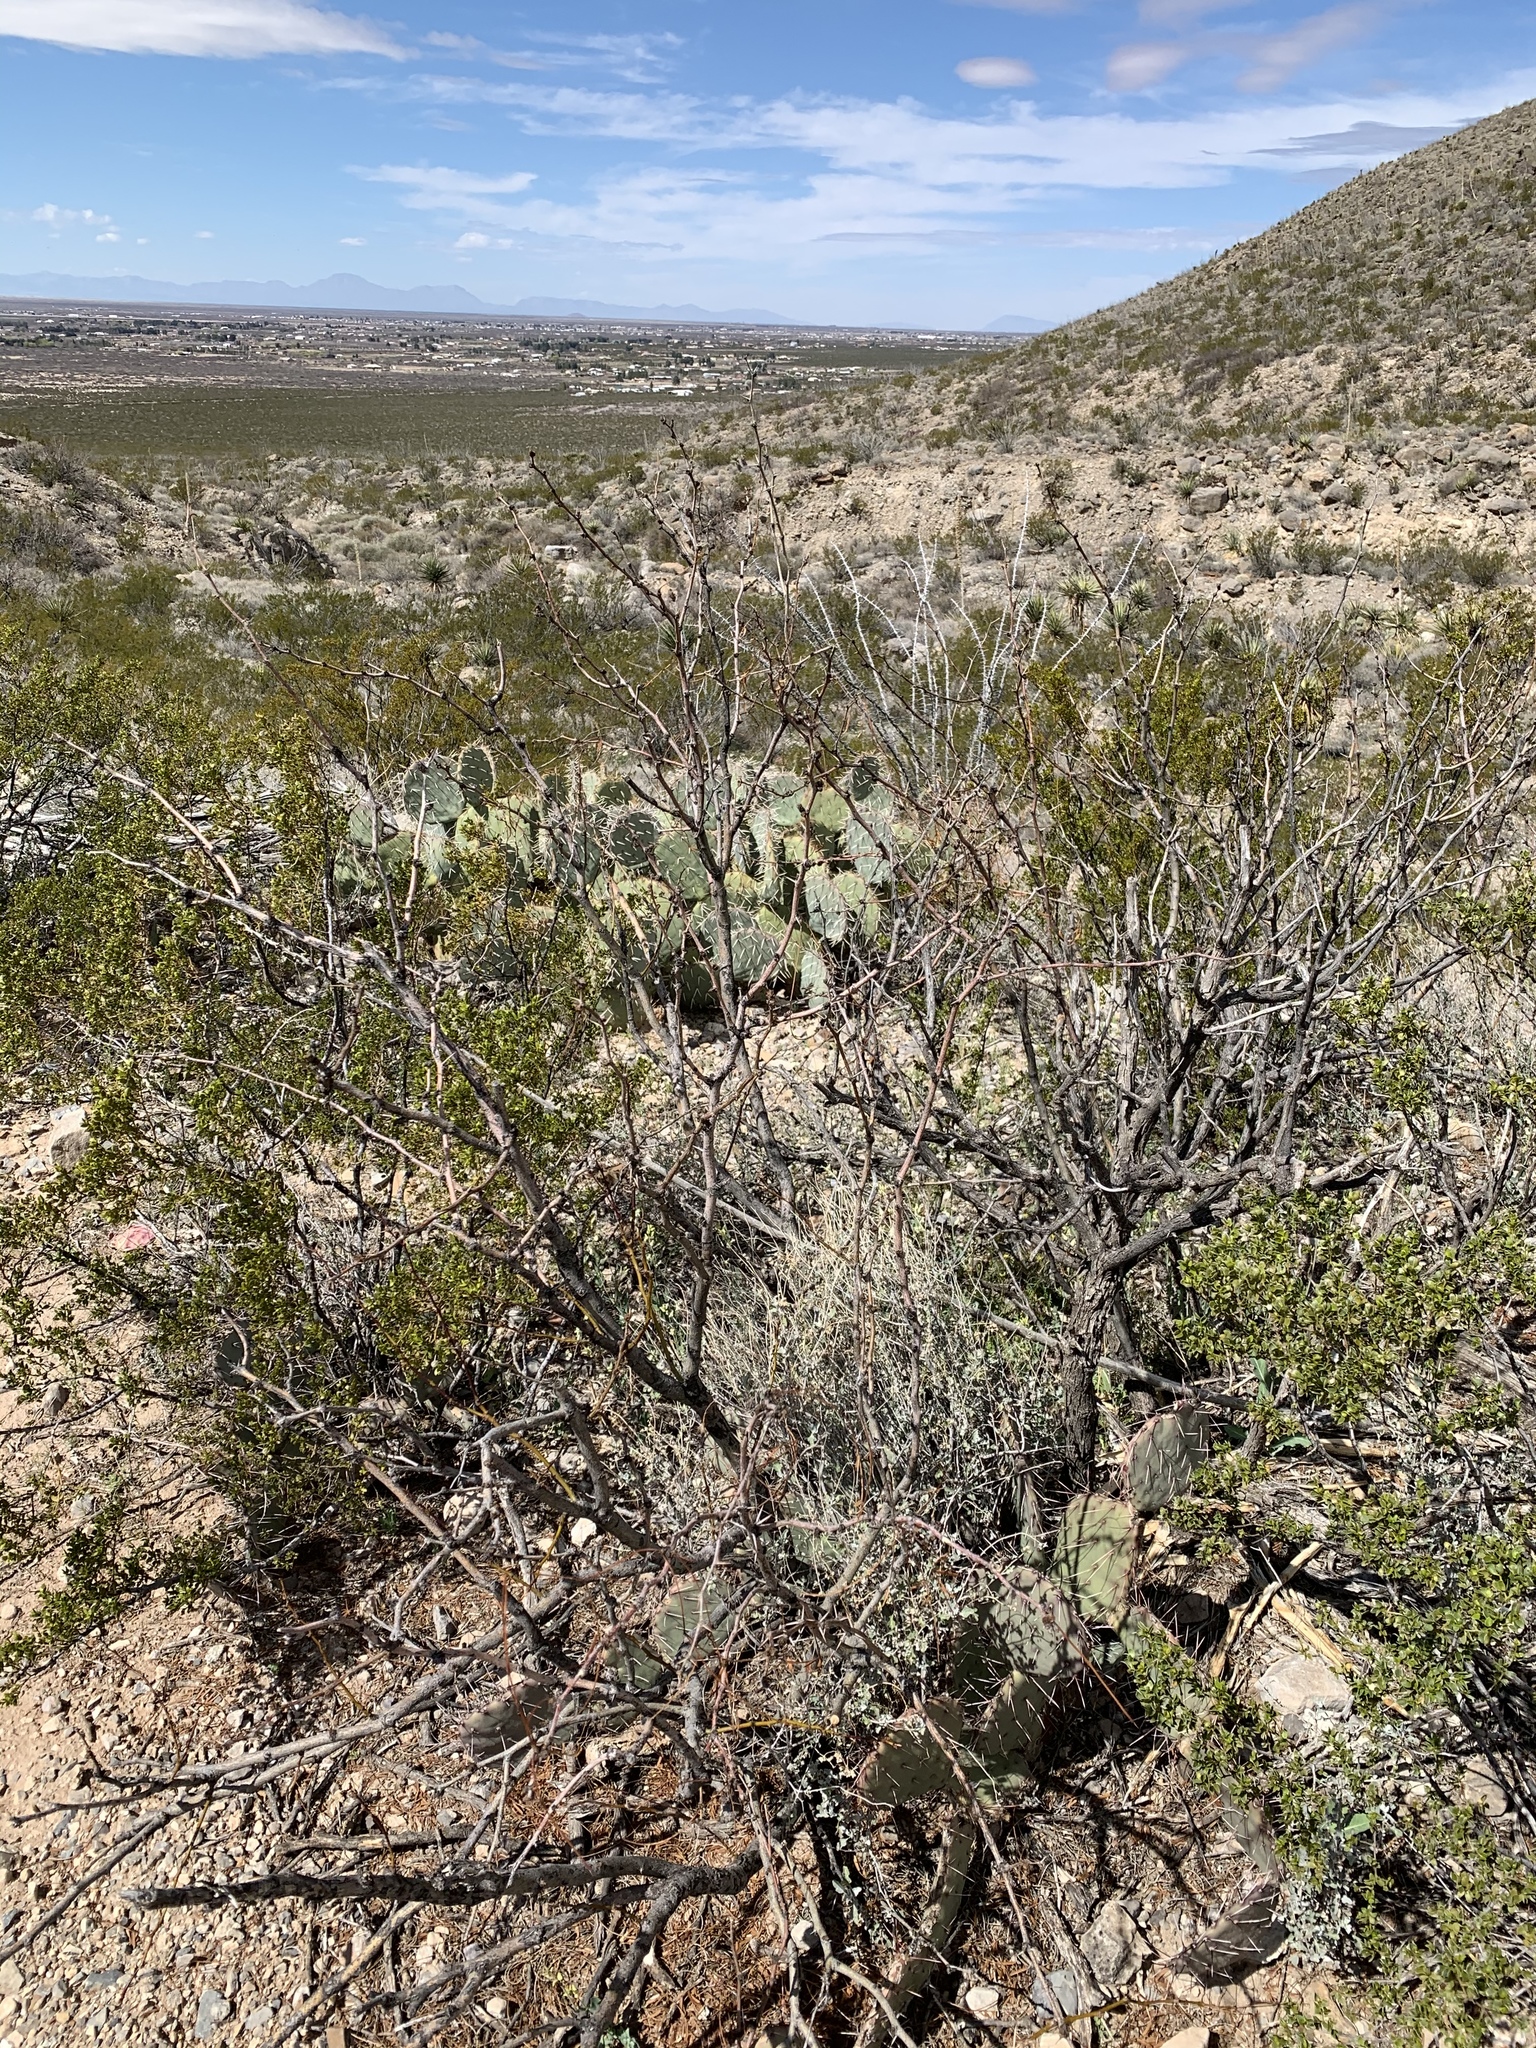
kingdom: Plantae
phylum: Tracheophyta
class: Magnoliopsida
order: Fabales
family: Fabaceae
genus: Prosopis
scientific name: Prosopis glandulosa
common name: Honey mesquite
